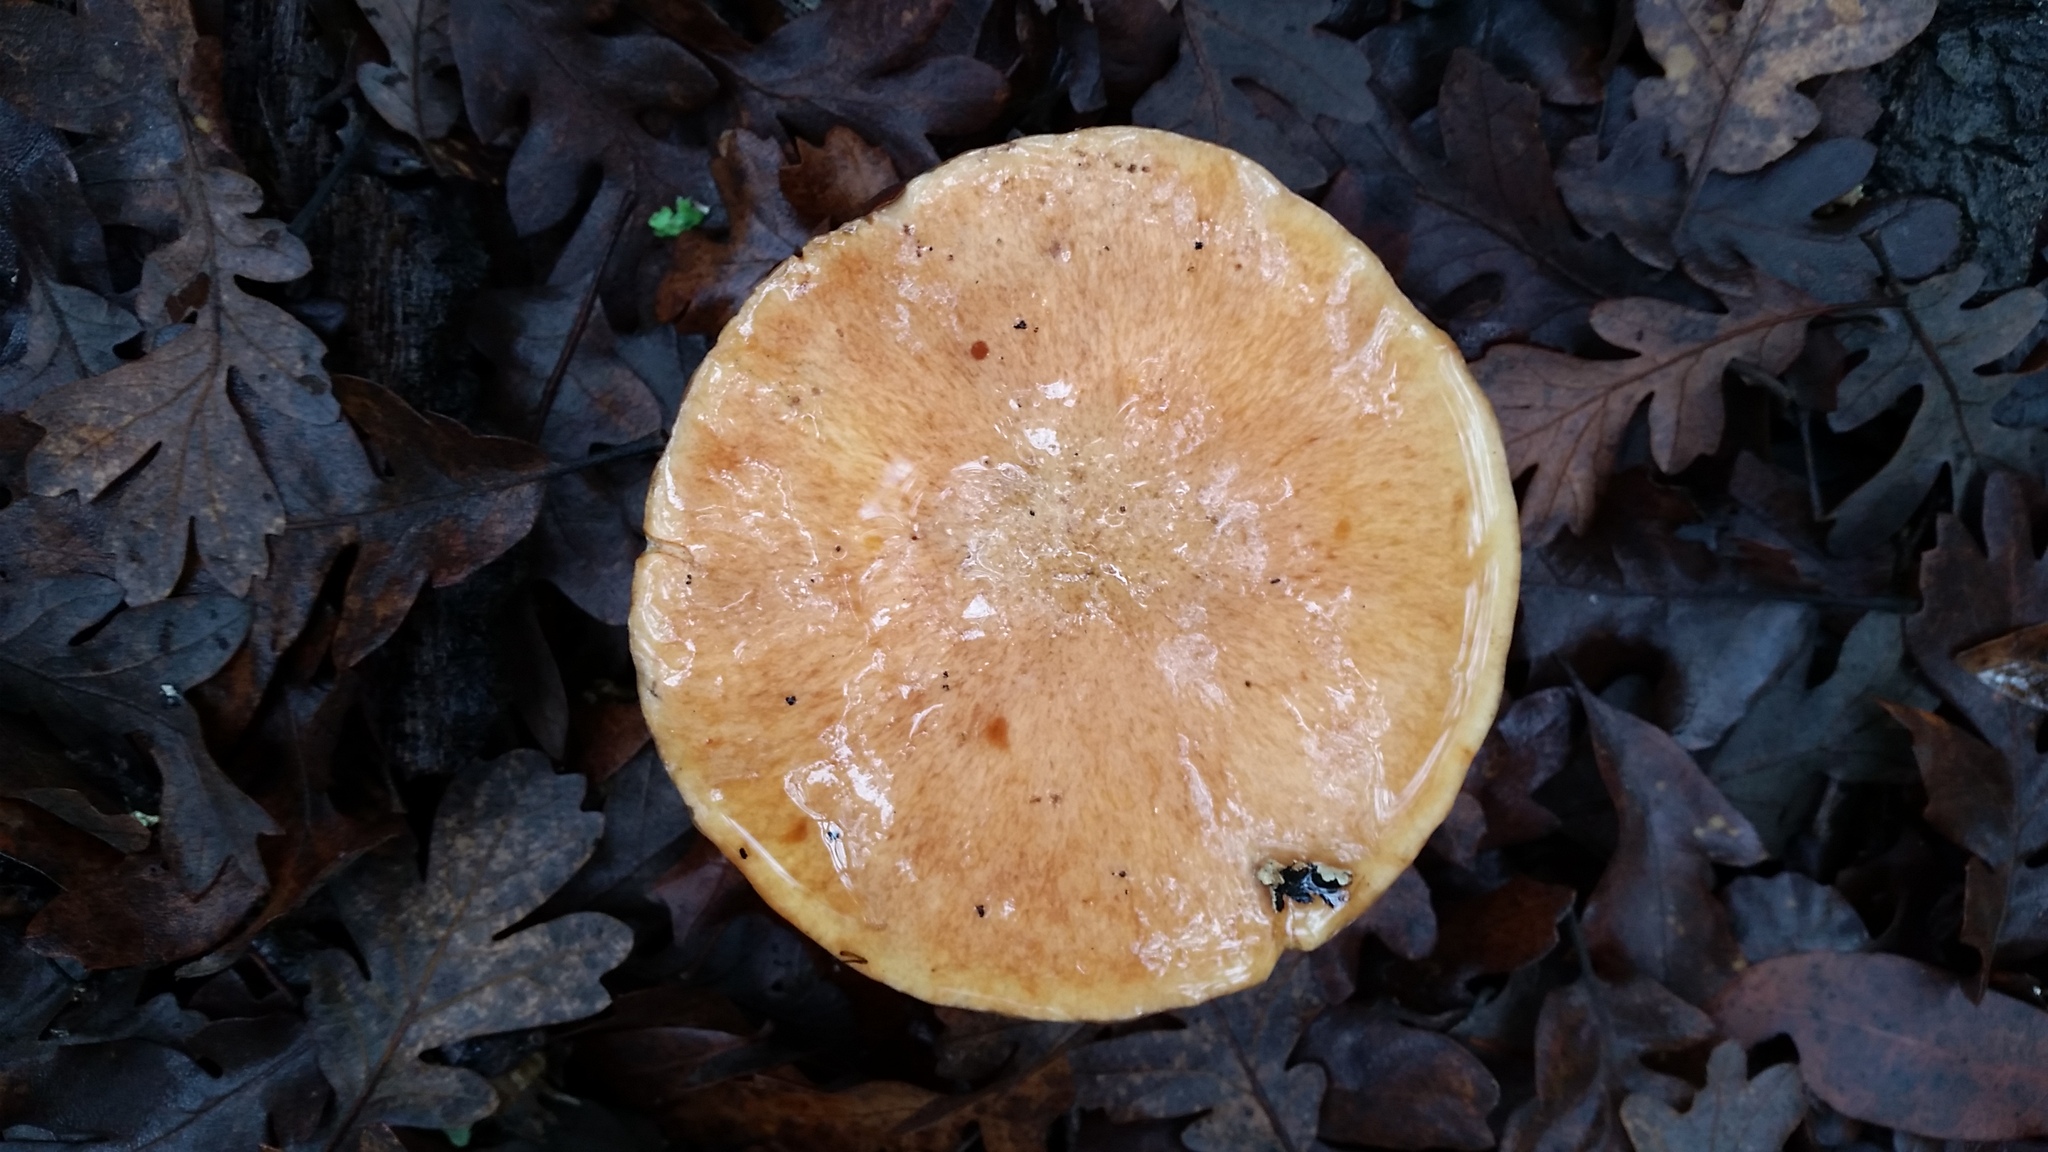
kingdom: Fungi
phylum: Basidiomycota
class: Agaricomycetes
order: Boletales
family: Suillaceae
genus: Suillus
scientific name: Suillus caerulescens
